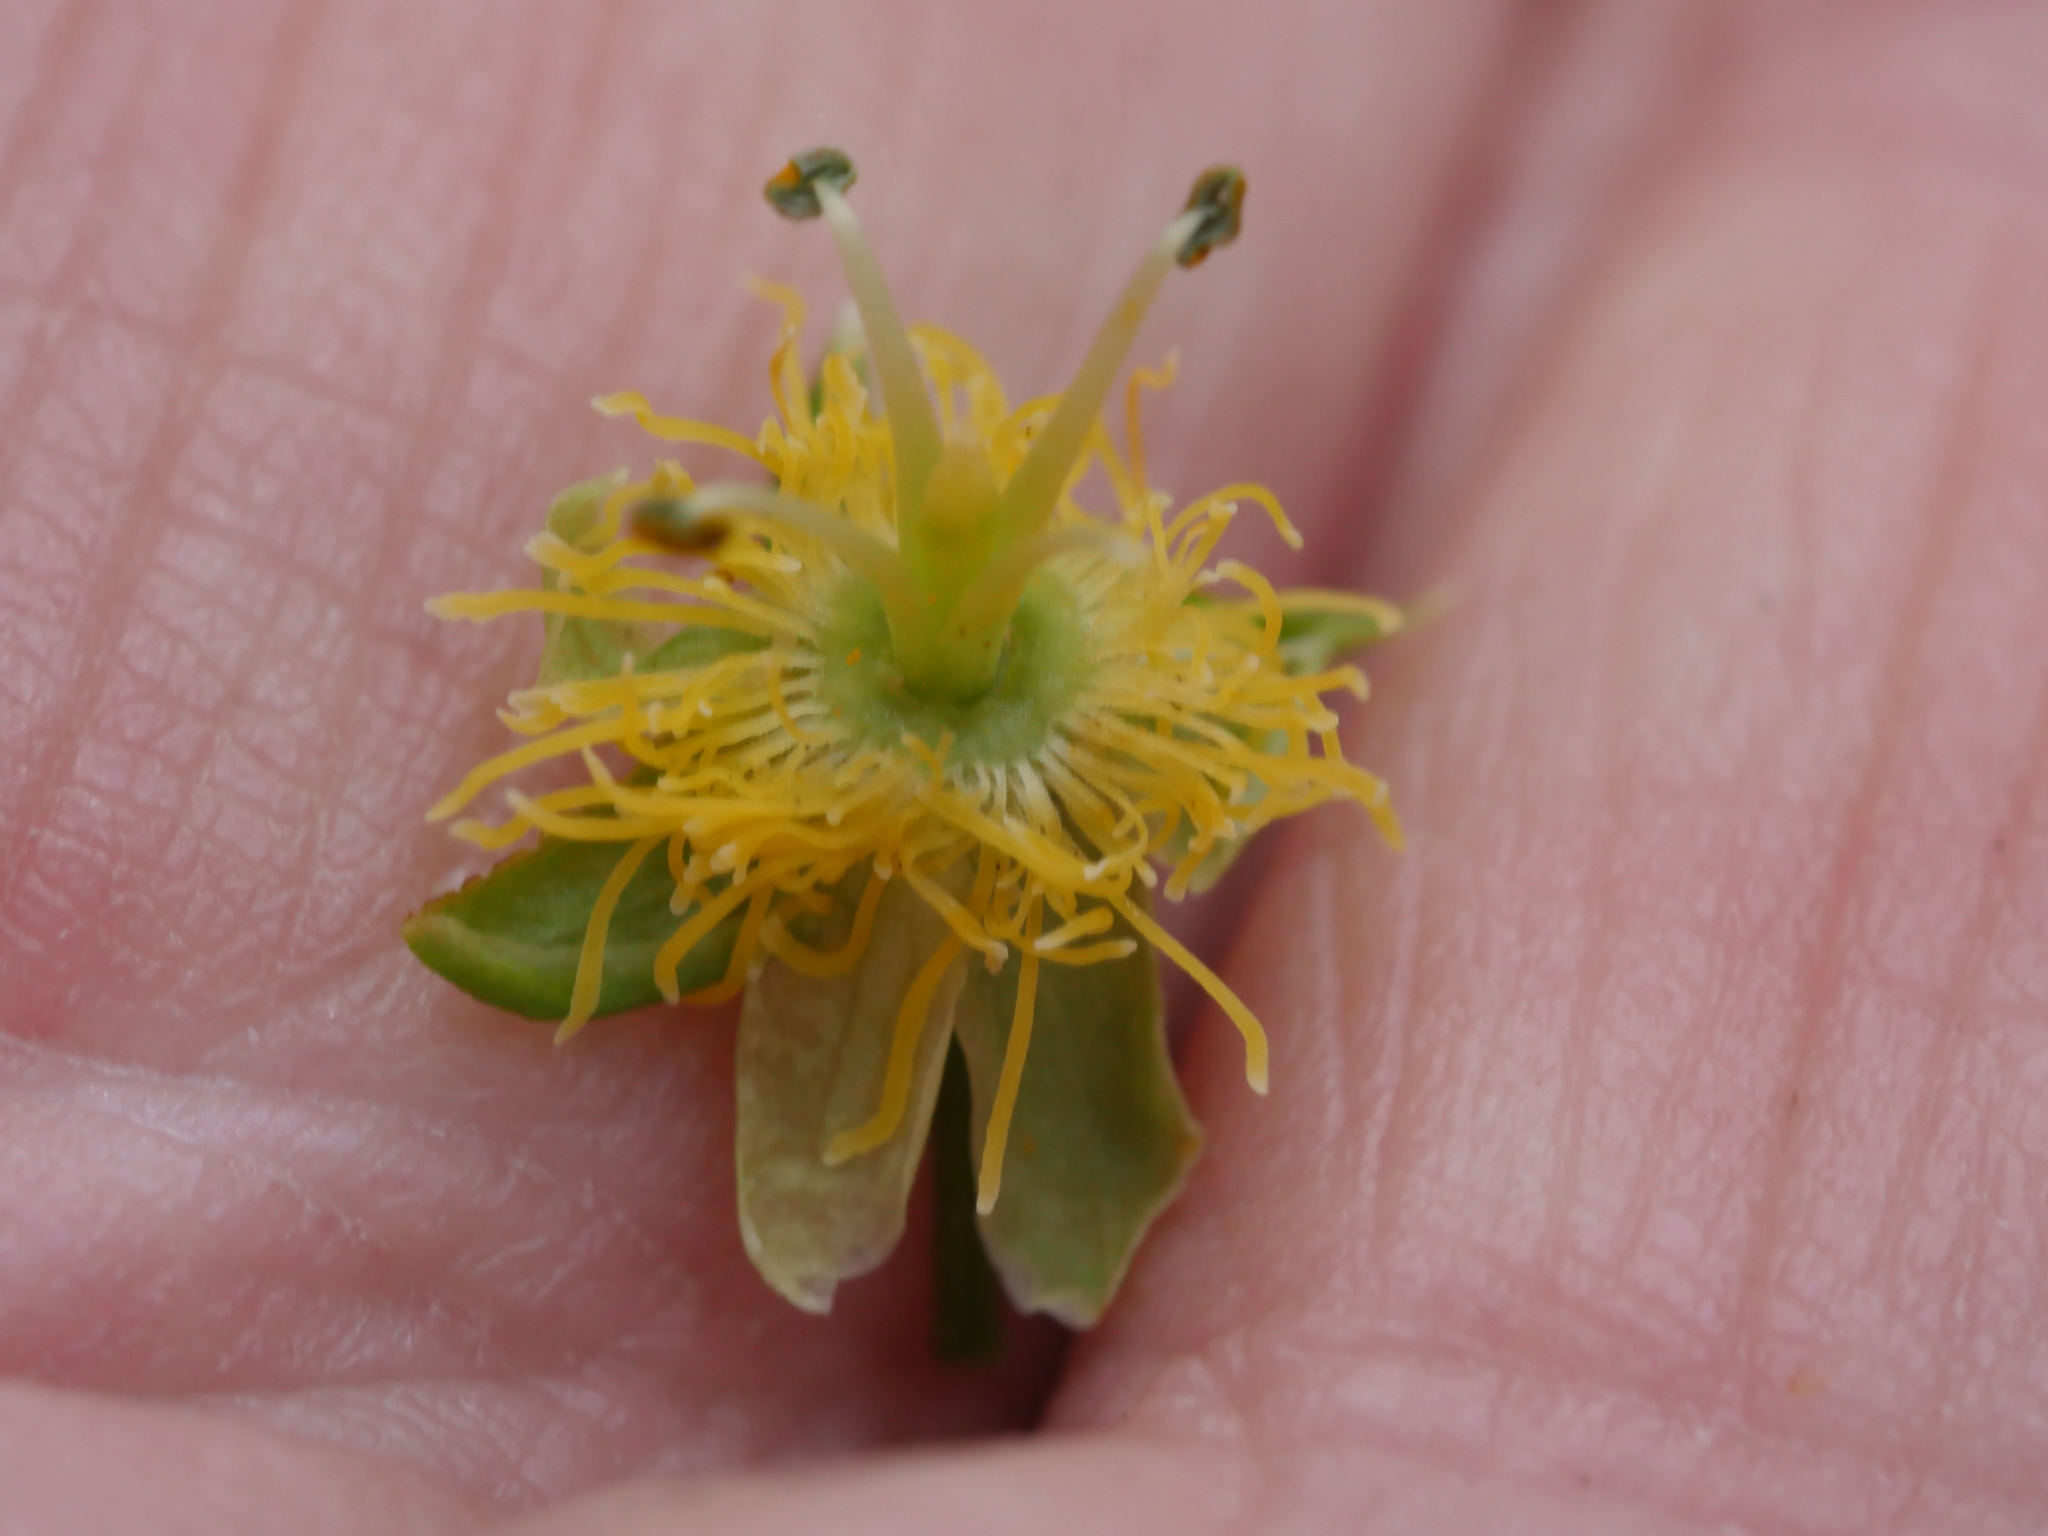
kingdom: Plantae
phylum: Tracheophyta
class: Magnoliopsida
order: Malpighiales
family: Passifloraceae
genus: Passiflora
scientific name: Passiflora tetrandra
